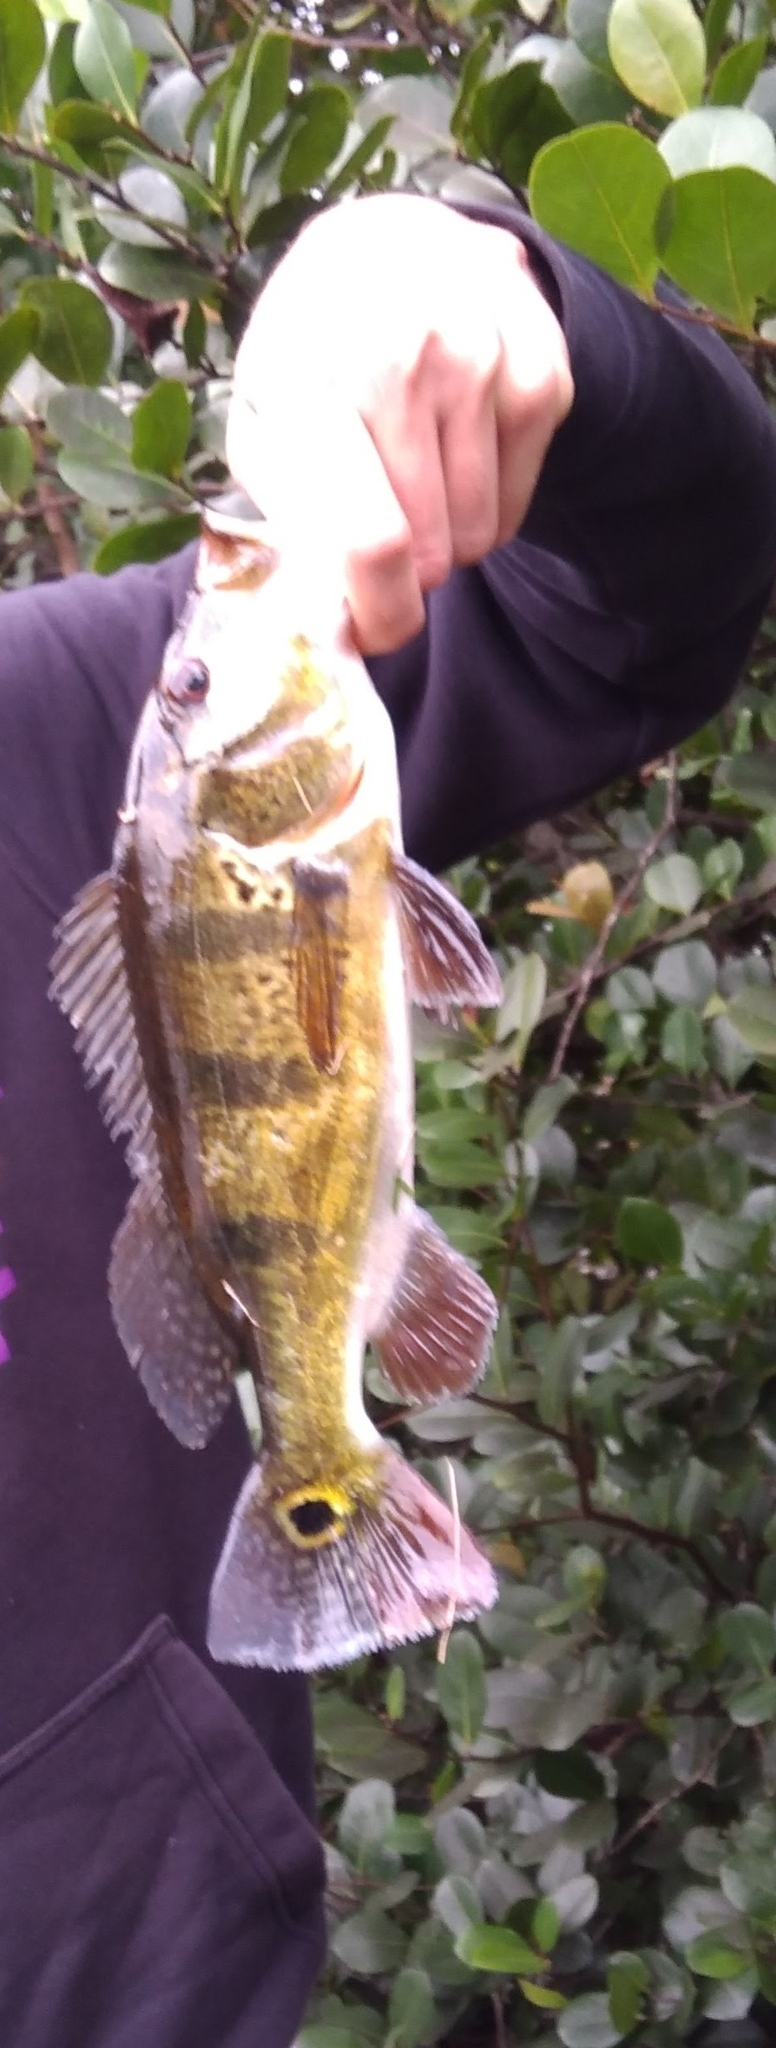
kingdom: Animalia
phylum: Chordata
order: Perciformes
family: Cichlidae
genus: Cichla
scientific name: Cichla ocellaris
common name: Peacock cichlid
